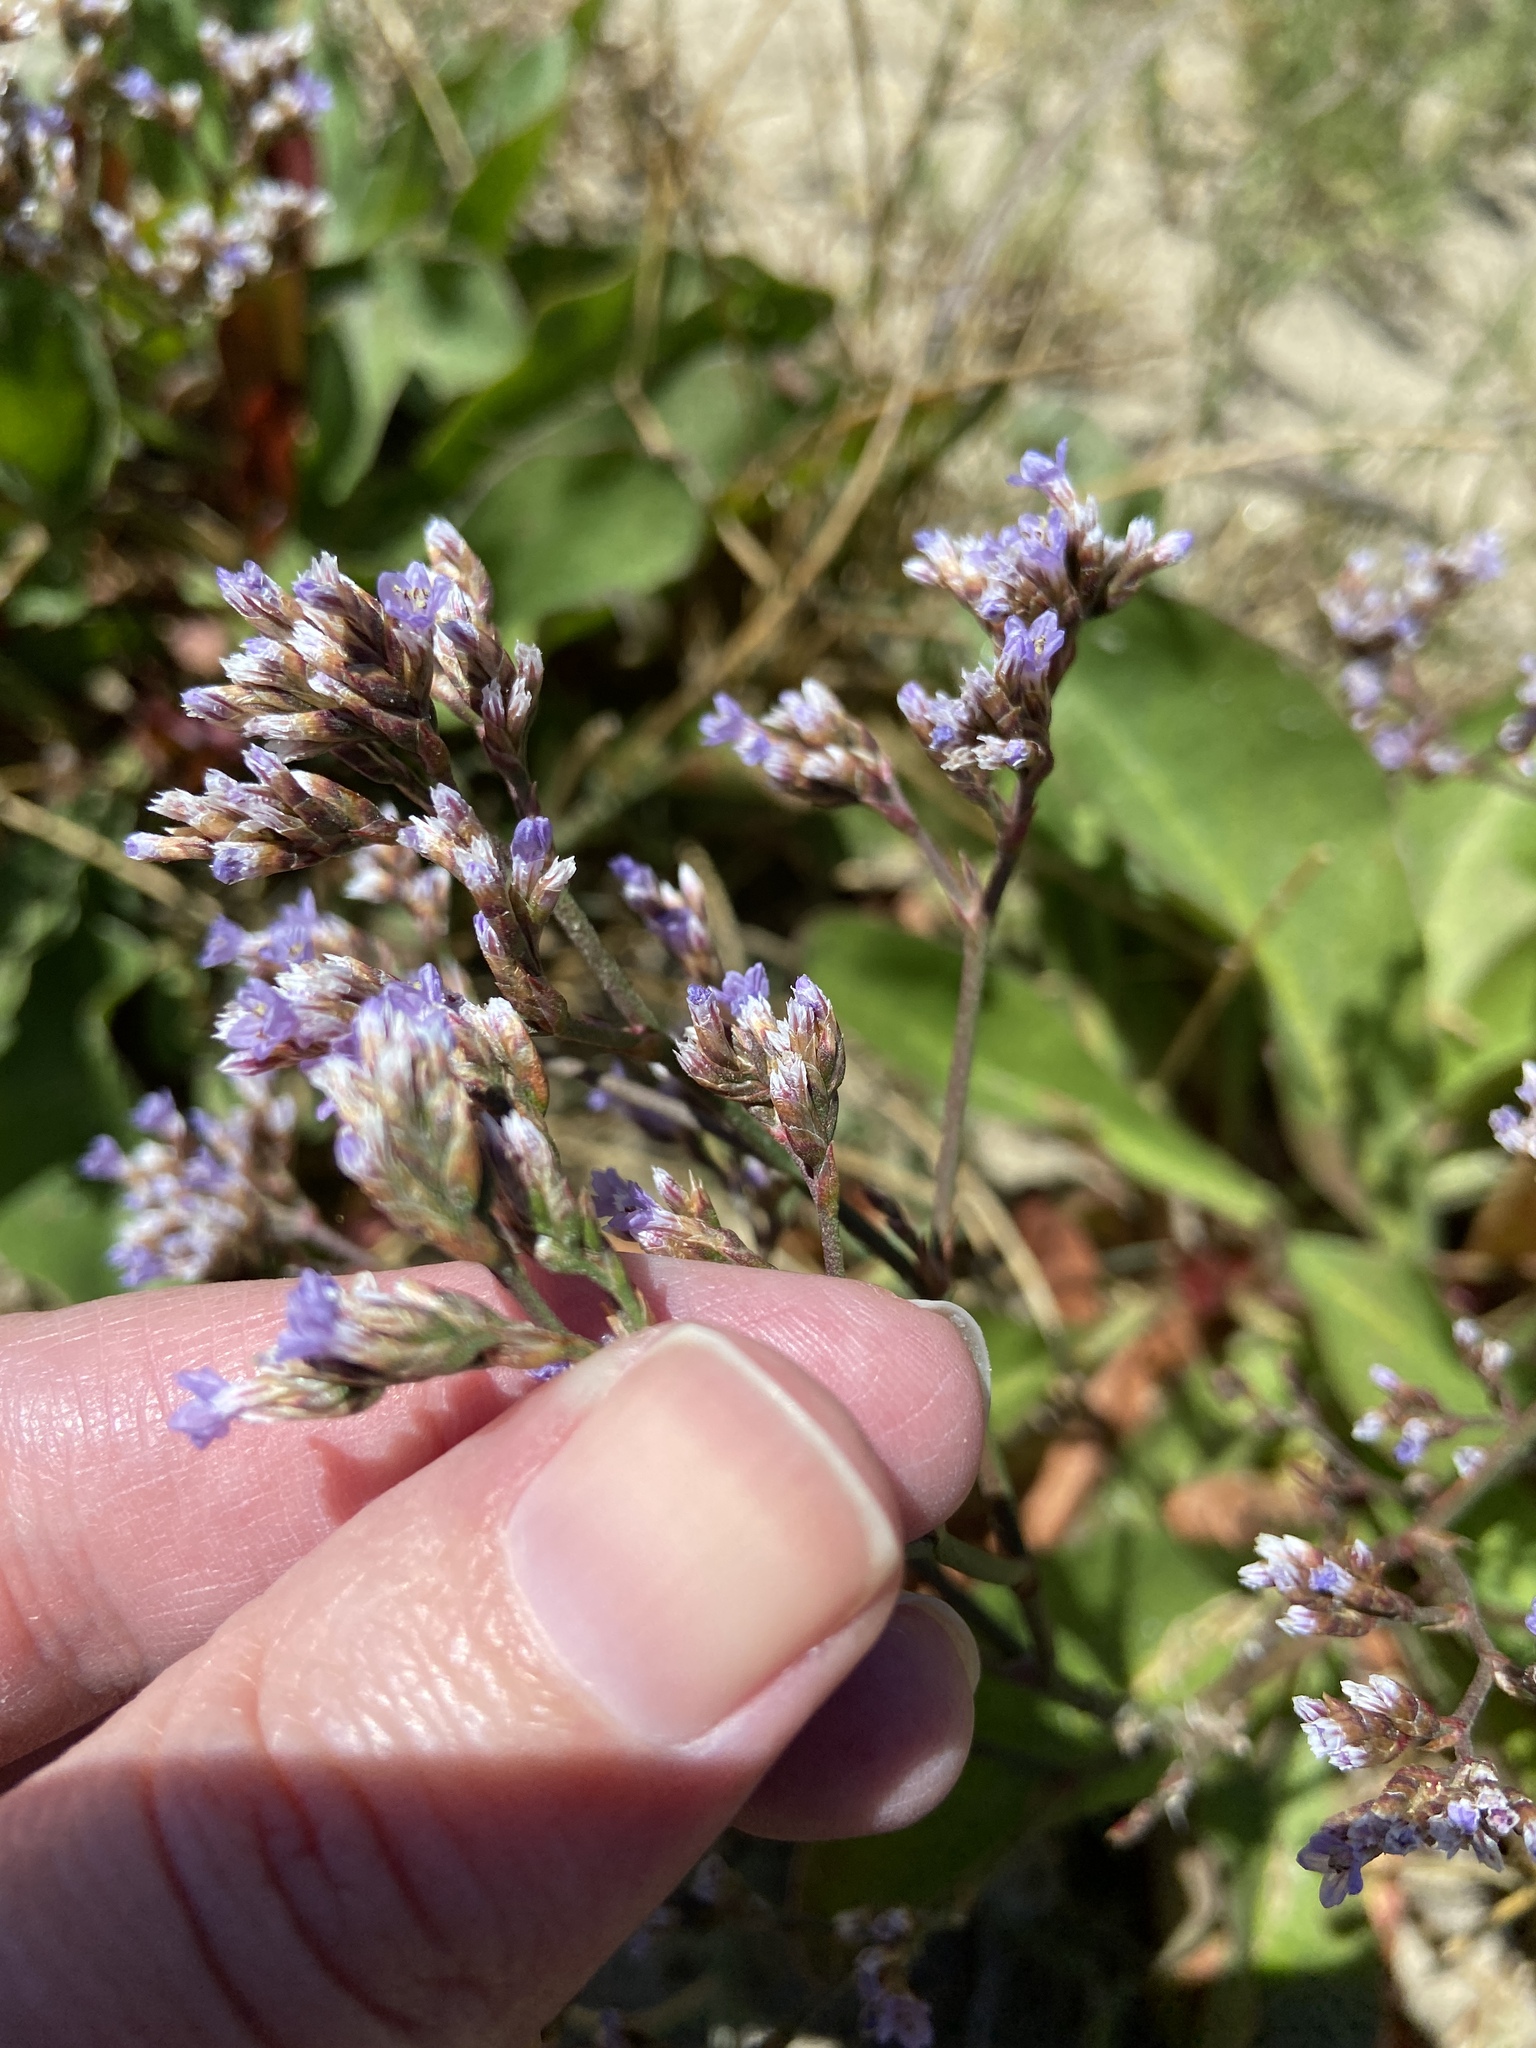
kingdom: Plantae
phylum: Tracheophyta
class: Magnoliopsida
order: Caryophyllales
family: Plumbaginaceae
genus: Limonium
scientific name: Limonium californicum
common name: Marsh-rosemary
